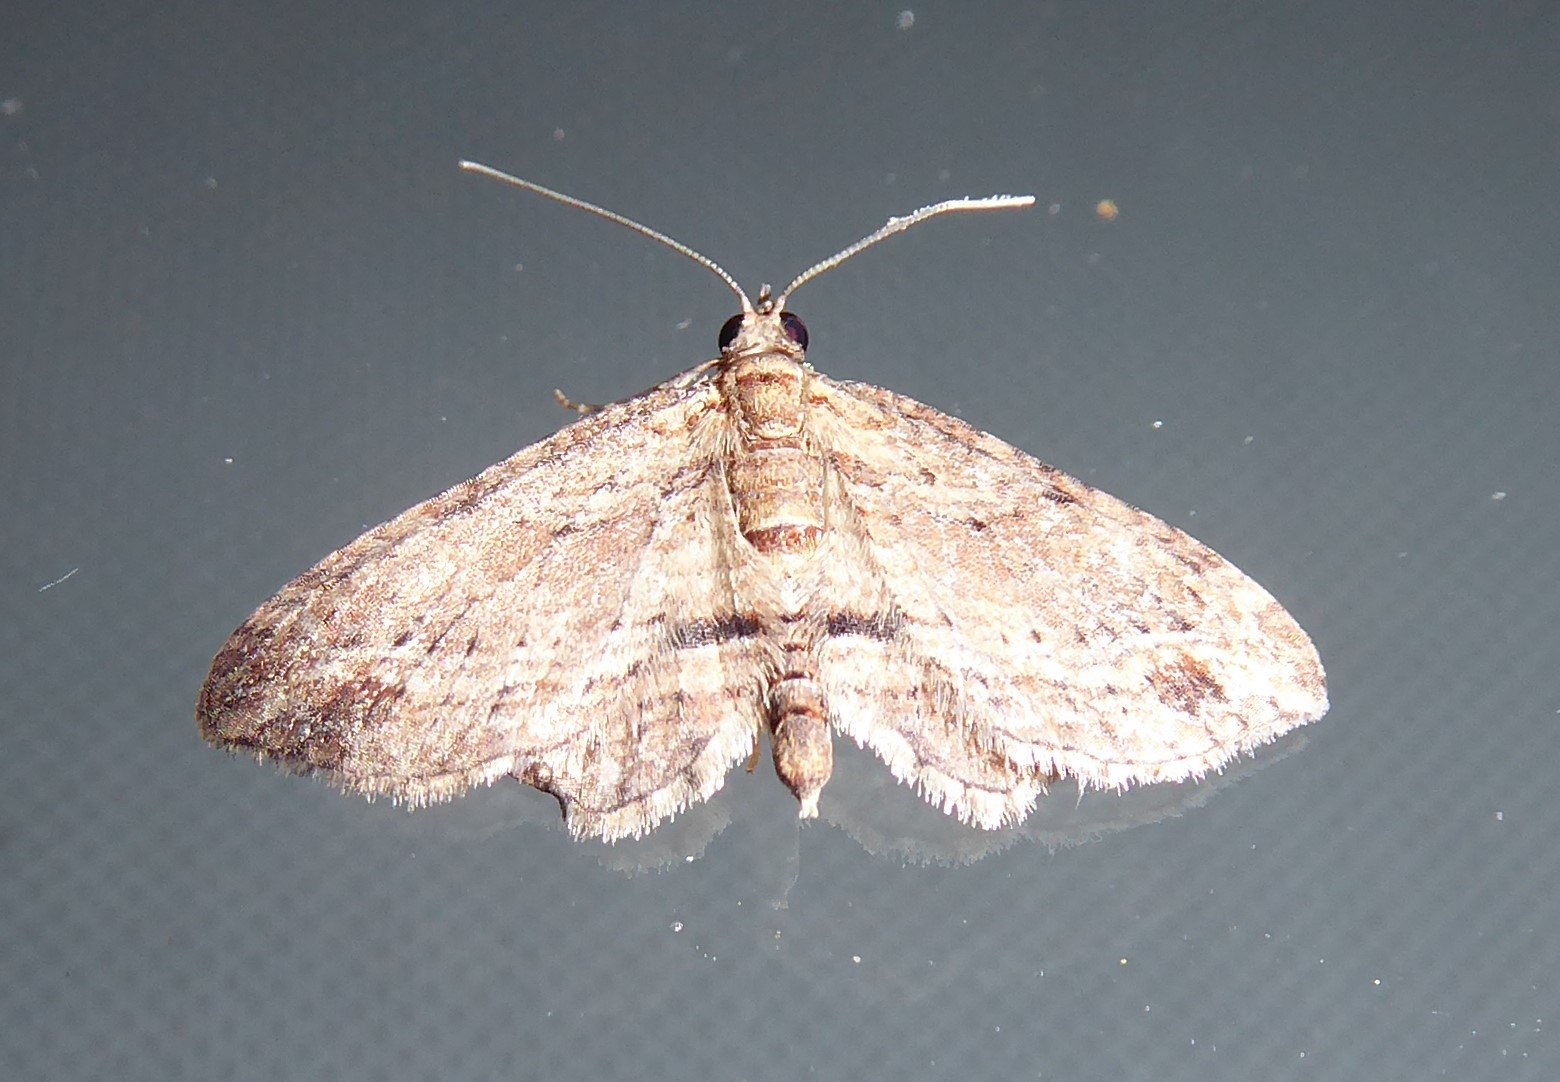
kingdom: Animalia
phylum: Arthropoda
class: Insecta
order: Lepidoptera
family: Geometridae
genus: Chloroclystis
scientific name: Chloroclystis filata
